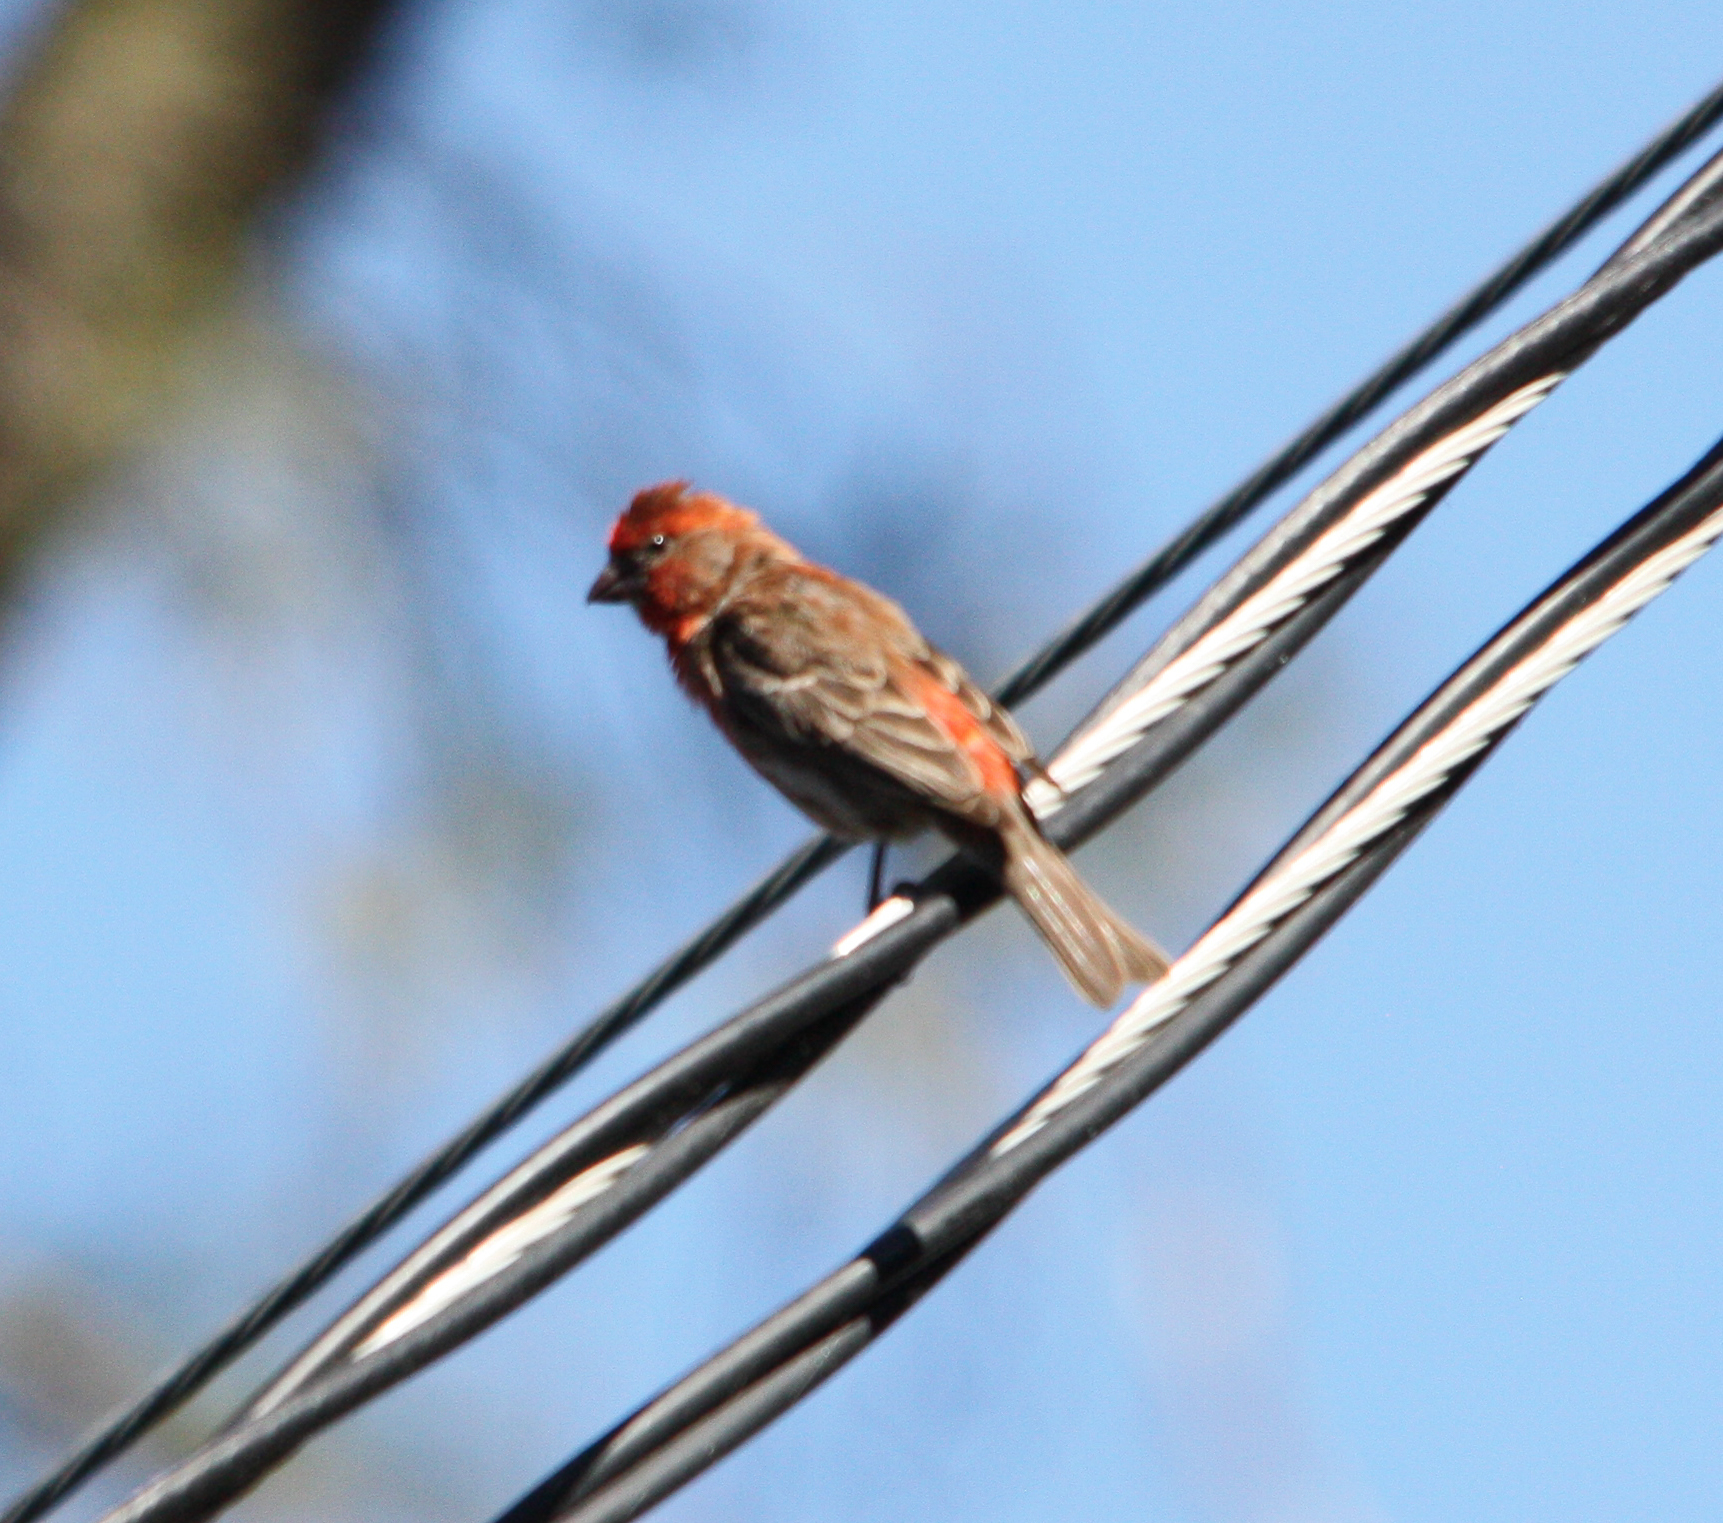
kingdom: Animalia
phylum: Chordata
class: Aves
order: Passeriformes
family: Fringillidae
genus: Haemorhous
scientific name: Haemorhous mexicanus
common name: House finch
